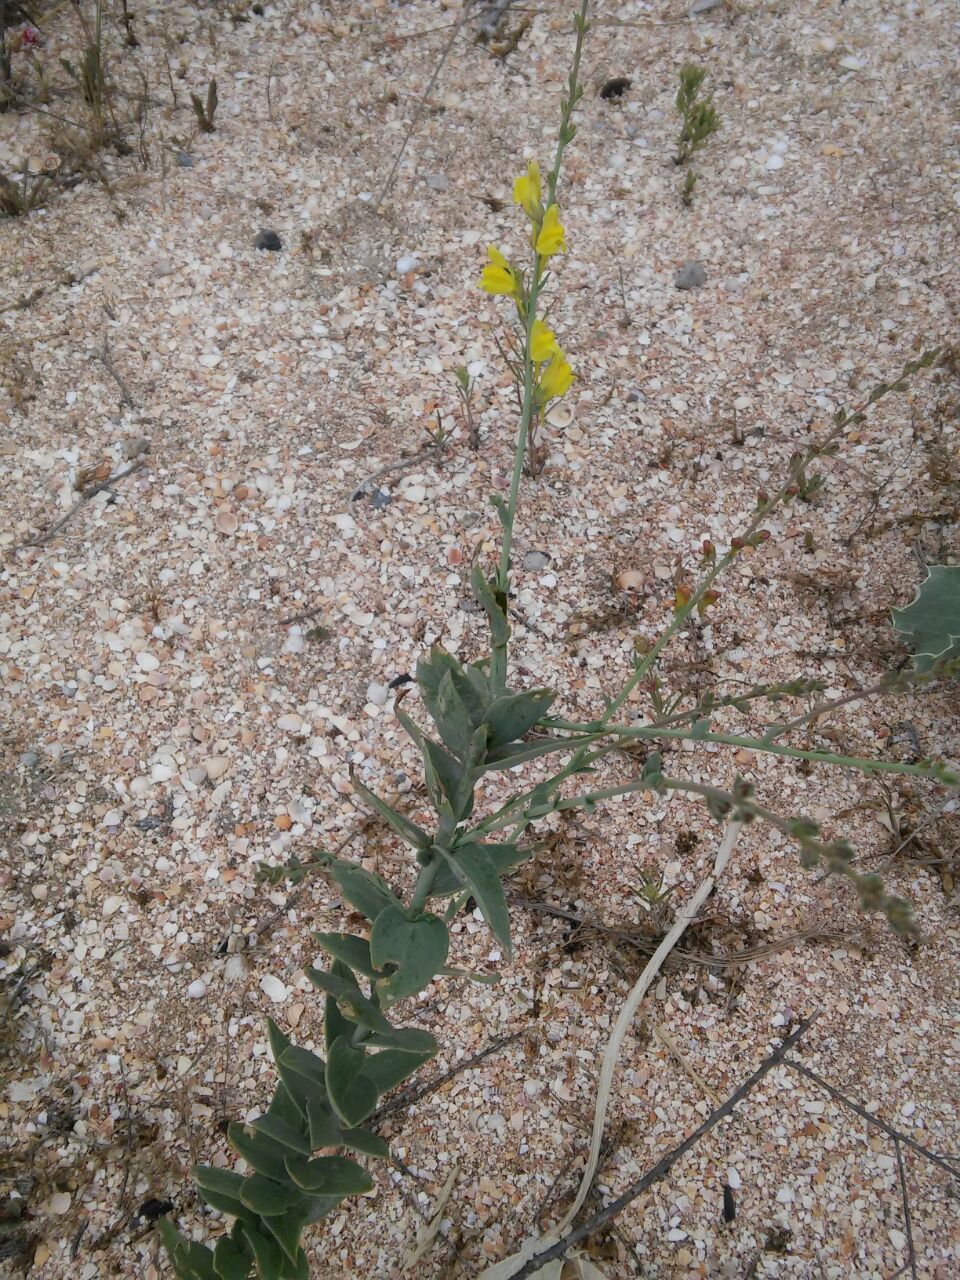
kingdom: Plantae
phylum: Tracheophyta
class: Magnoliopsida
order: Lamiales
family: Plantaginaceae
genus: Linaria
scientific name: Linaria sabulosa
